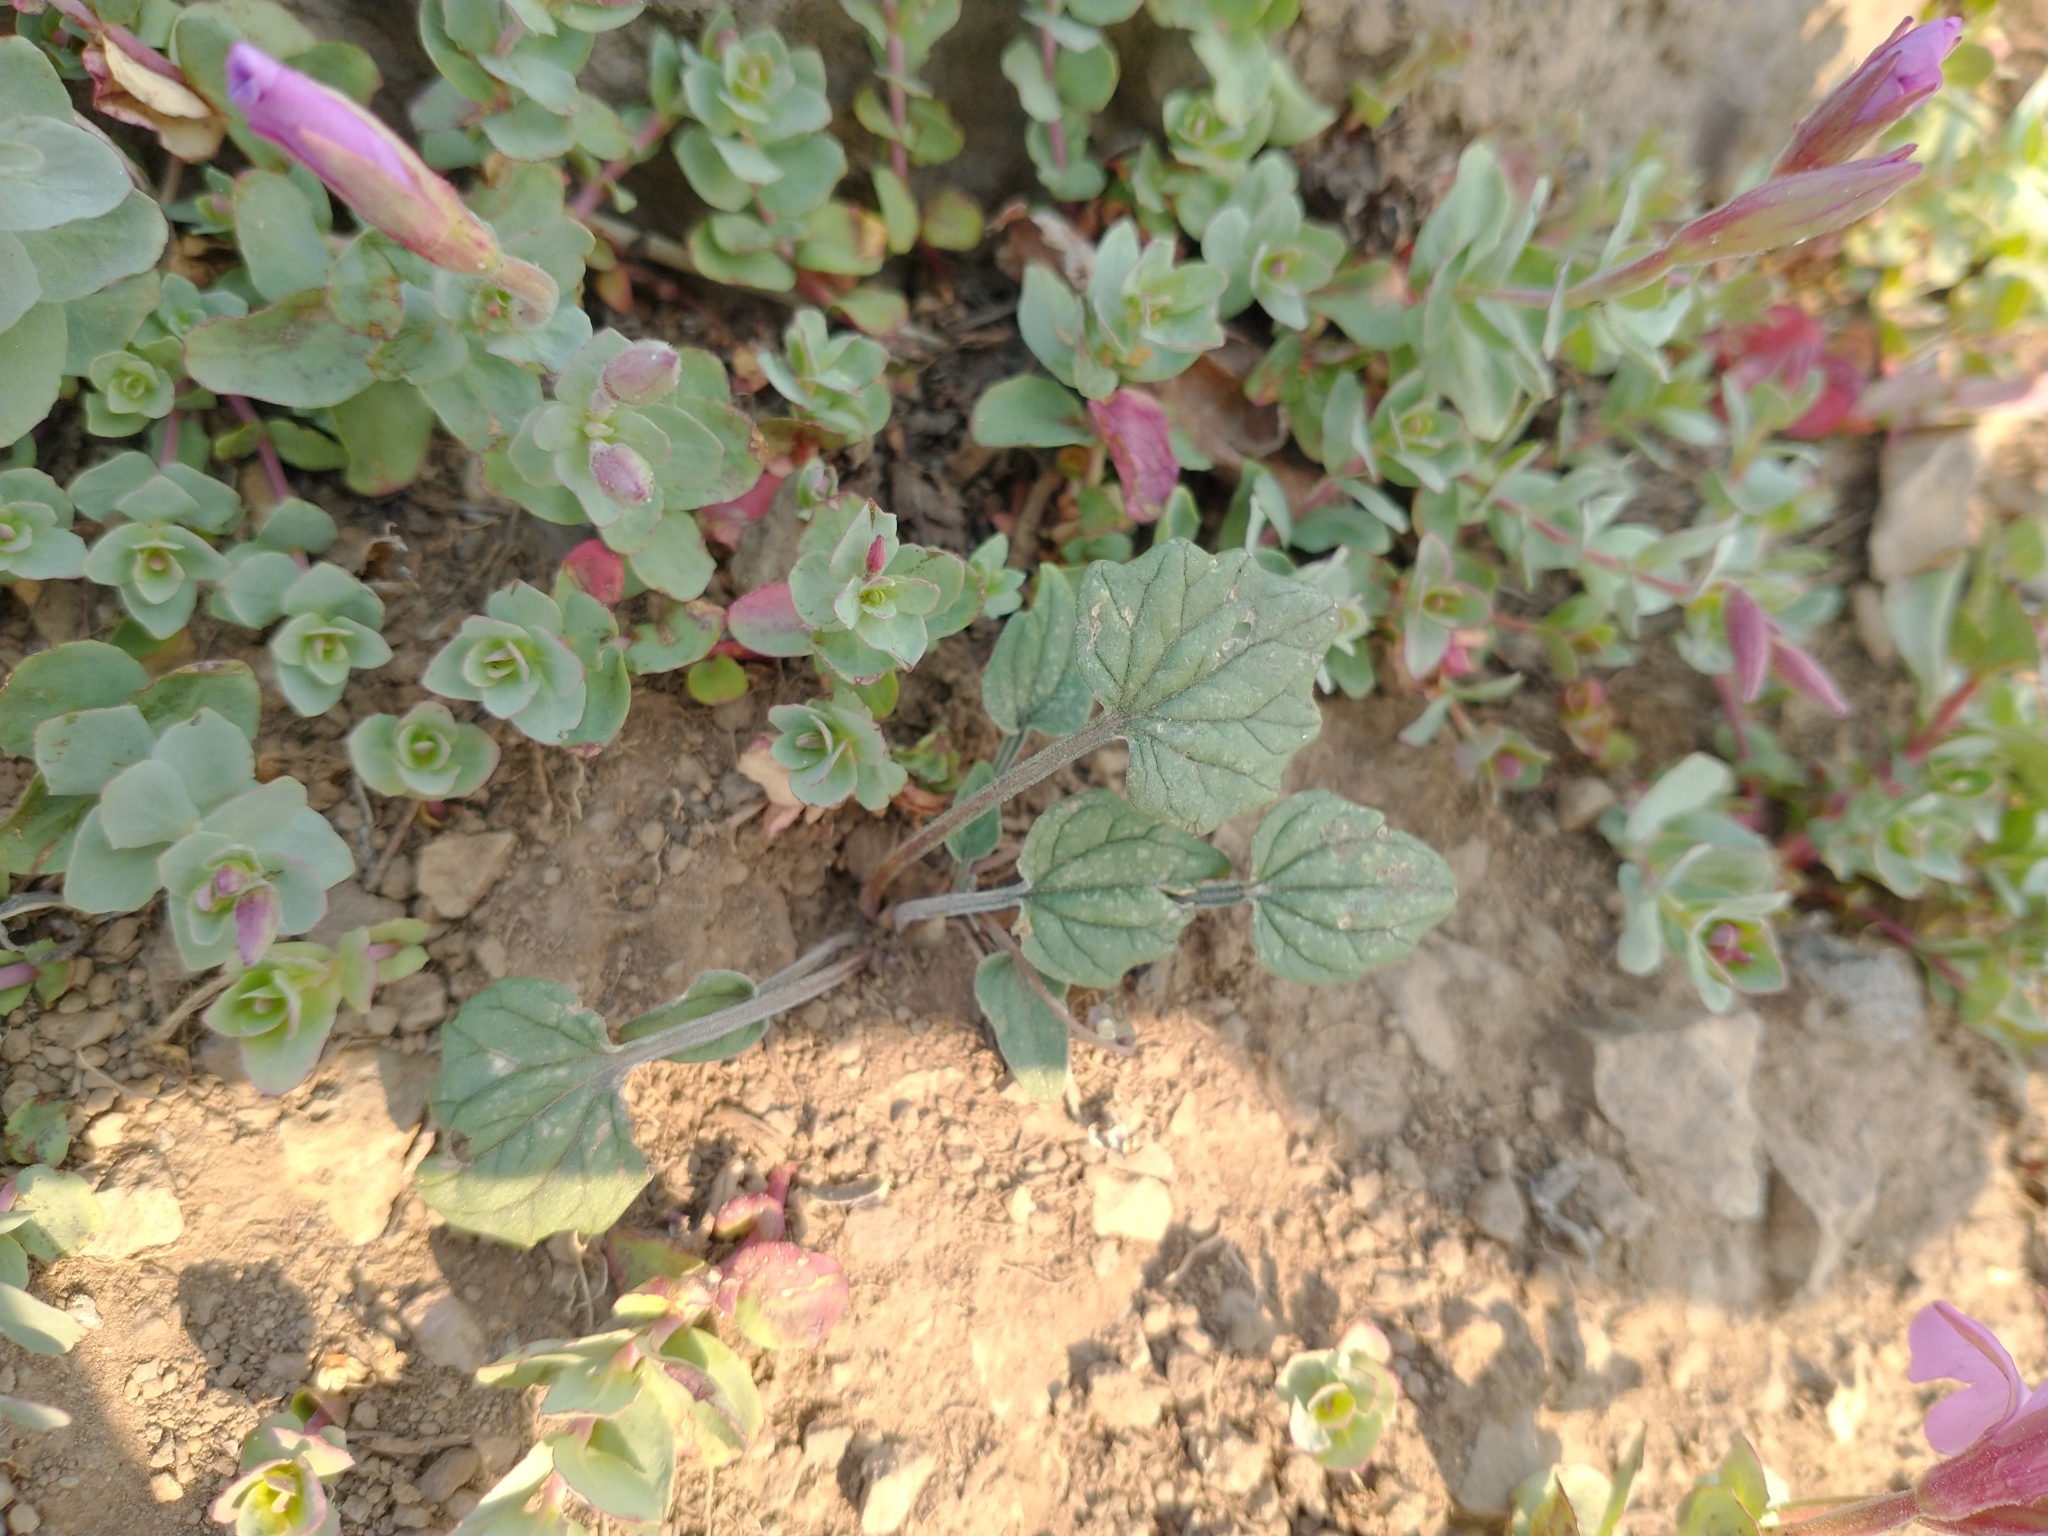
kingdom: Plantae
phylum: Tracheophyta
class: Magnoliopsida
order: Malpighiales
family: Violaceae
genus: Viola
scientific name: Viola purpurea
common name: Pine violet
